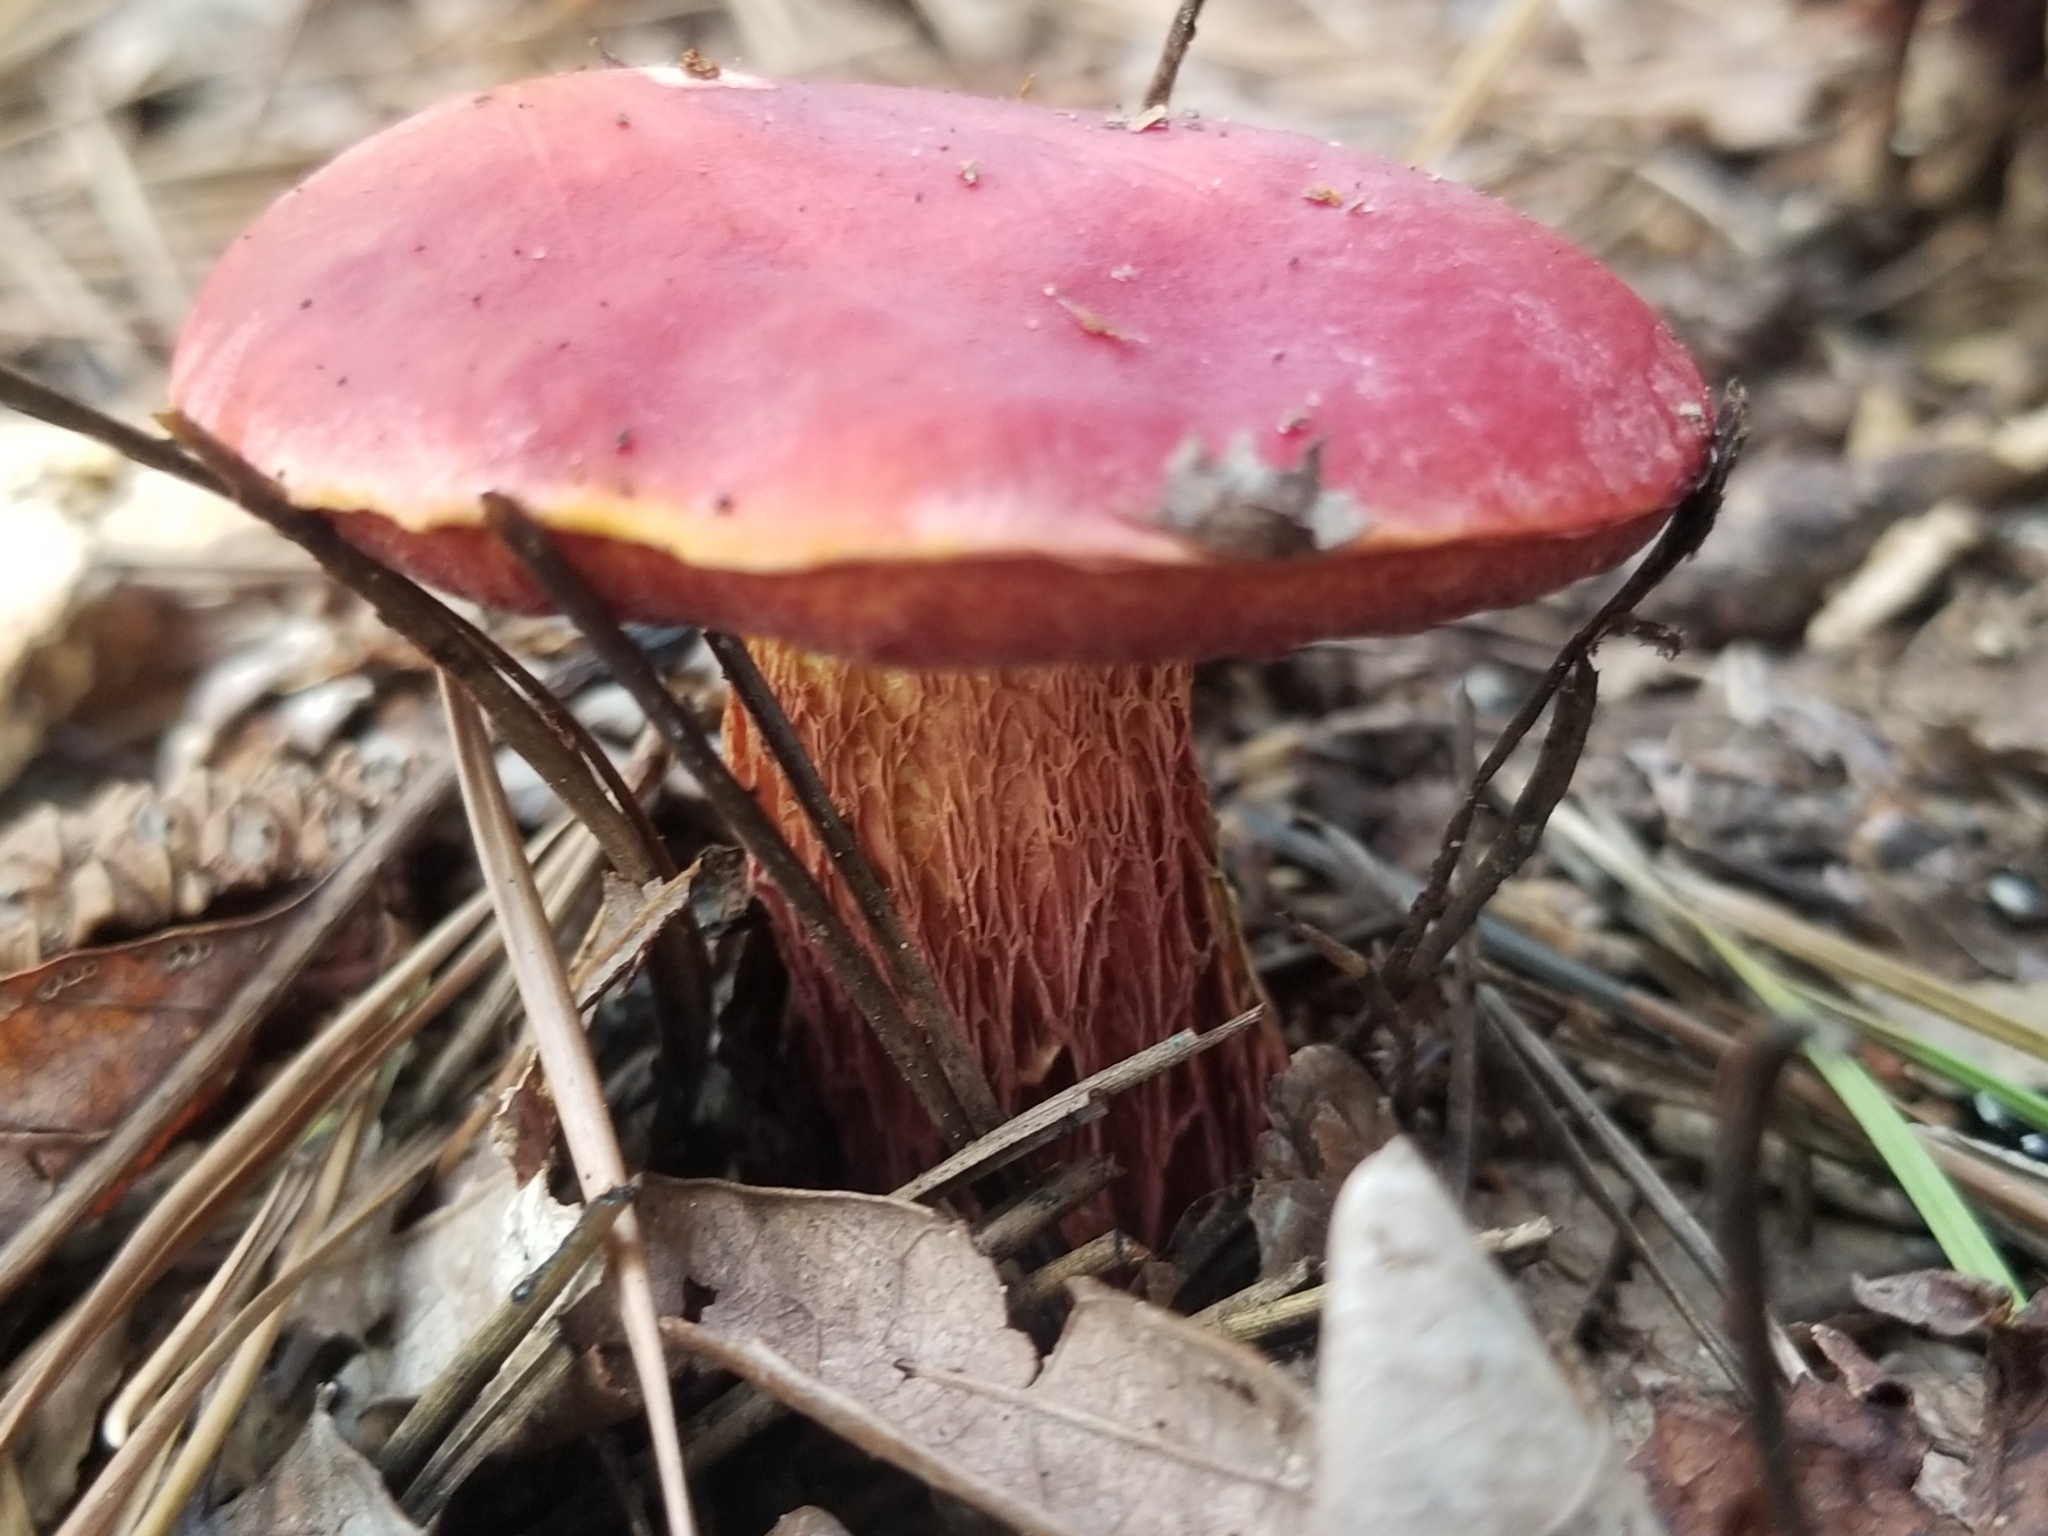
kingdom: Fungi
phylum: Basidiomycota
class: Agaricomycetes
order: Boletales
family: Boletaceae
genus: Butyriboletus
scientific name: Butyriboletus frostii
